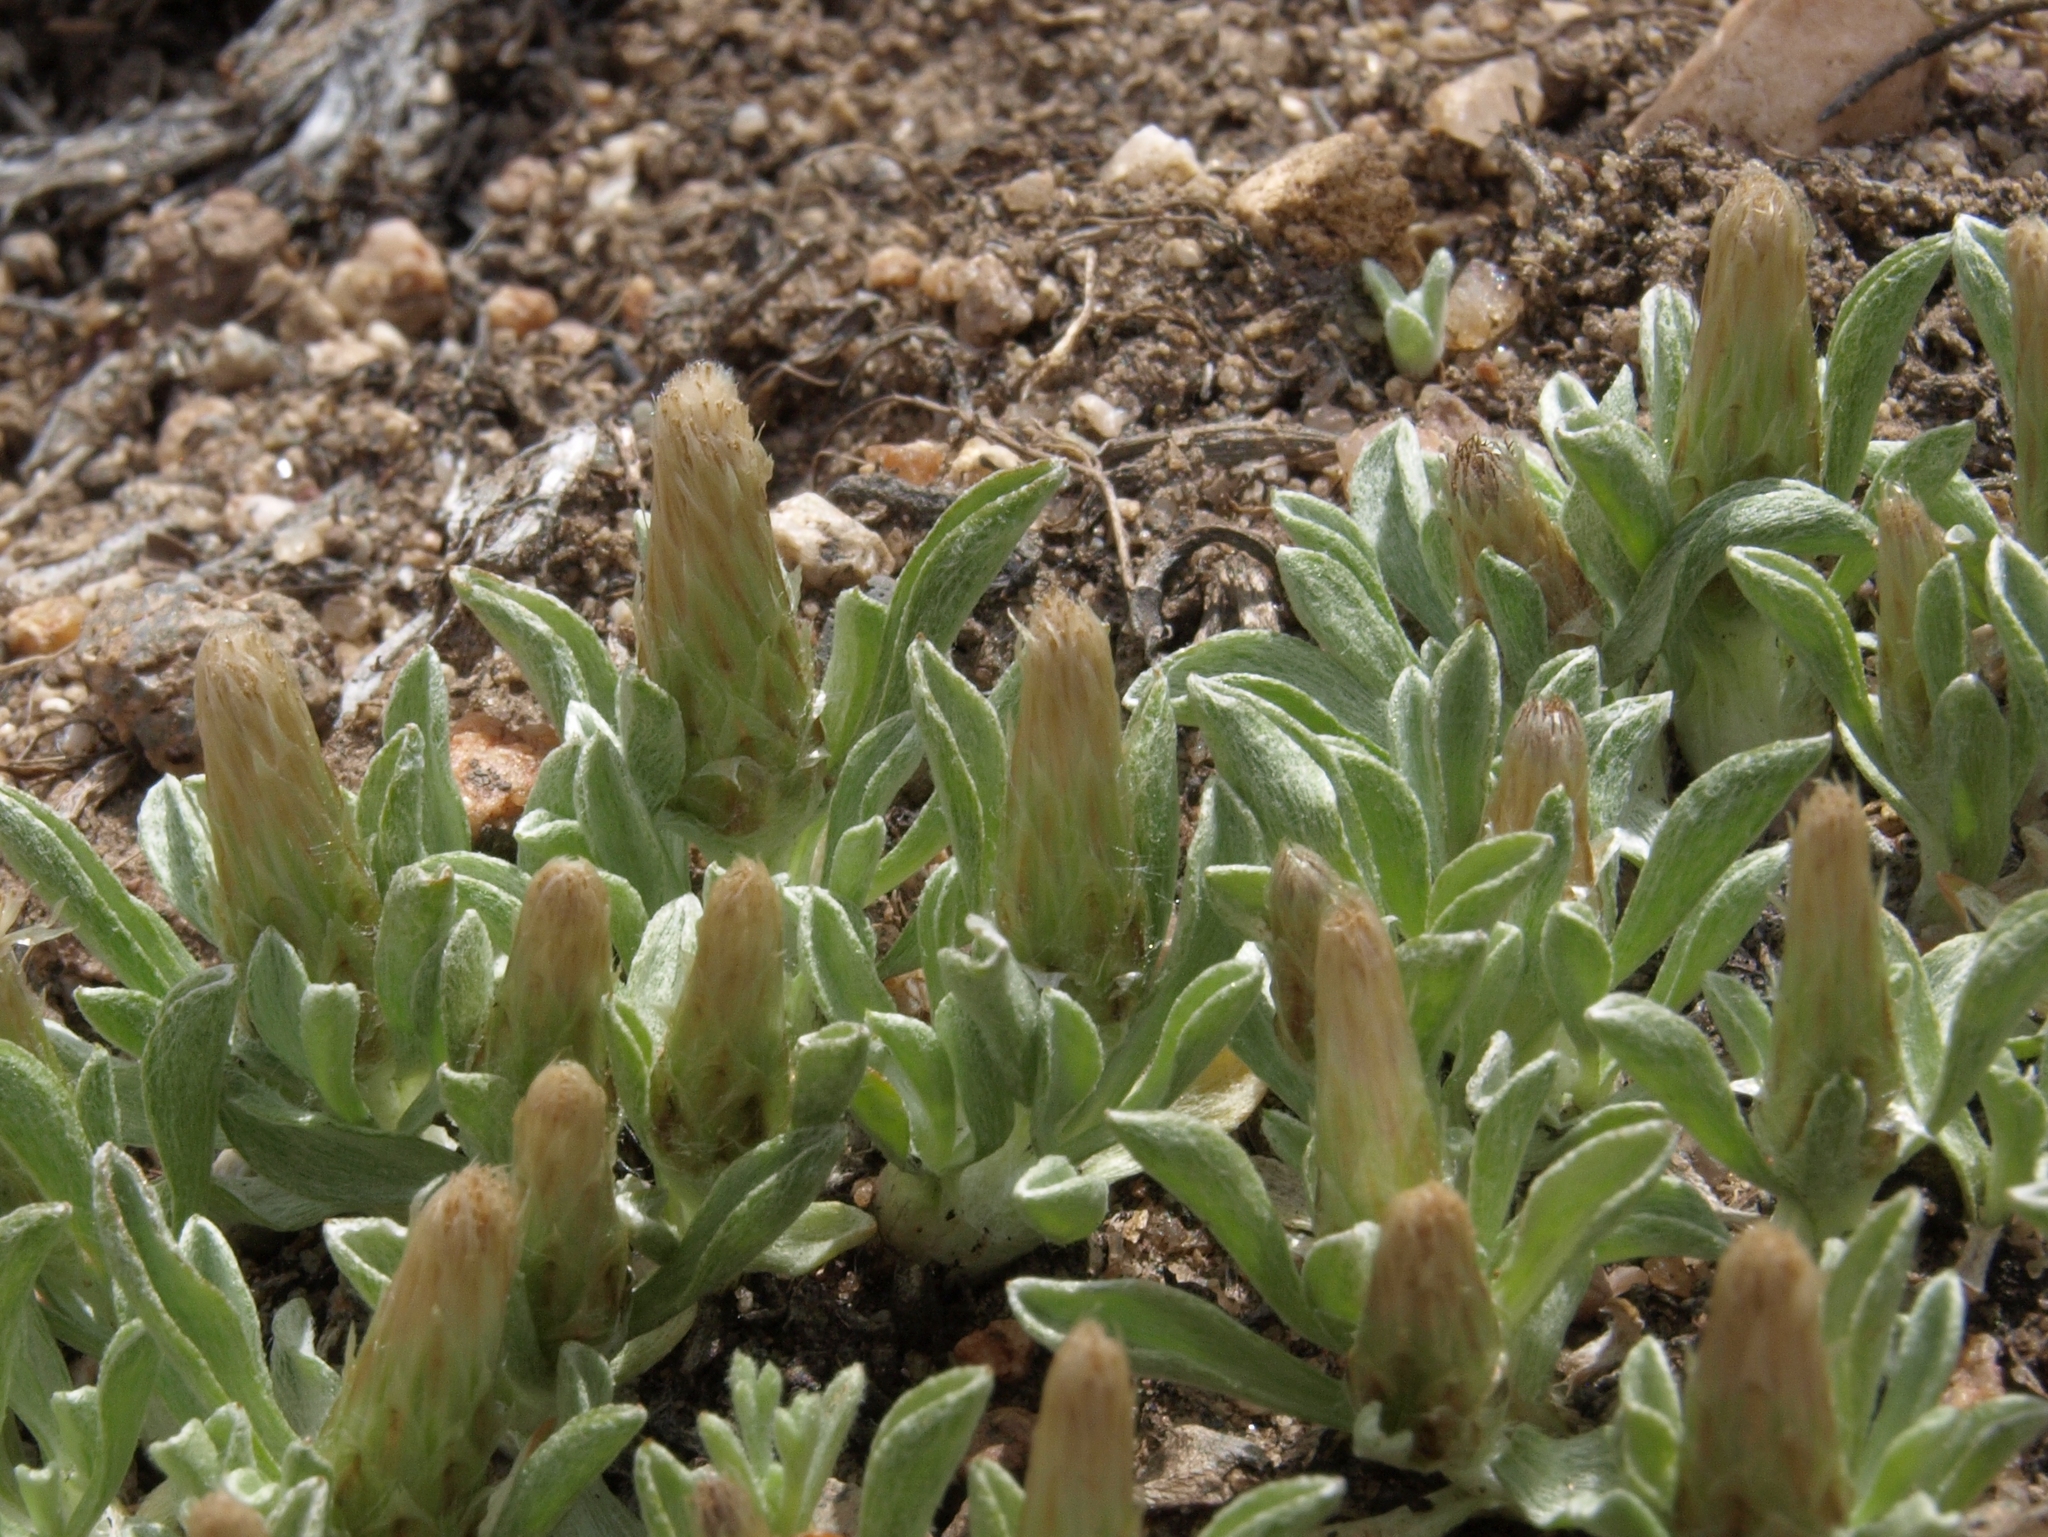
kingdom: Plantae
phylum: Tracheophyta
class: Magnoliopsida
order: Asterales
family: Asteraceae
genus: Antennaria
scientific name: Antennaria dimorpha
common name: Cushion pussytoes
